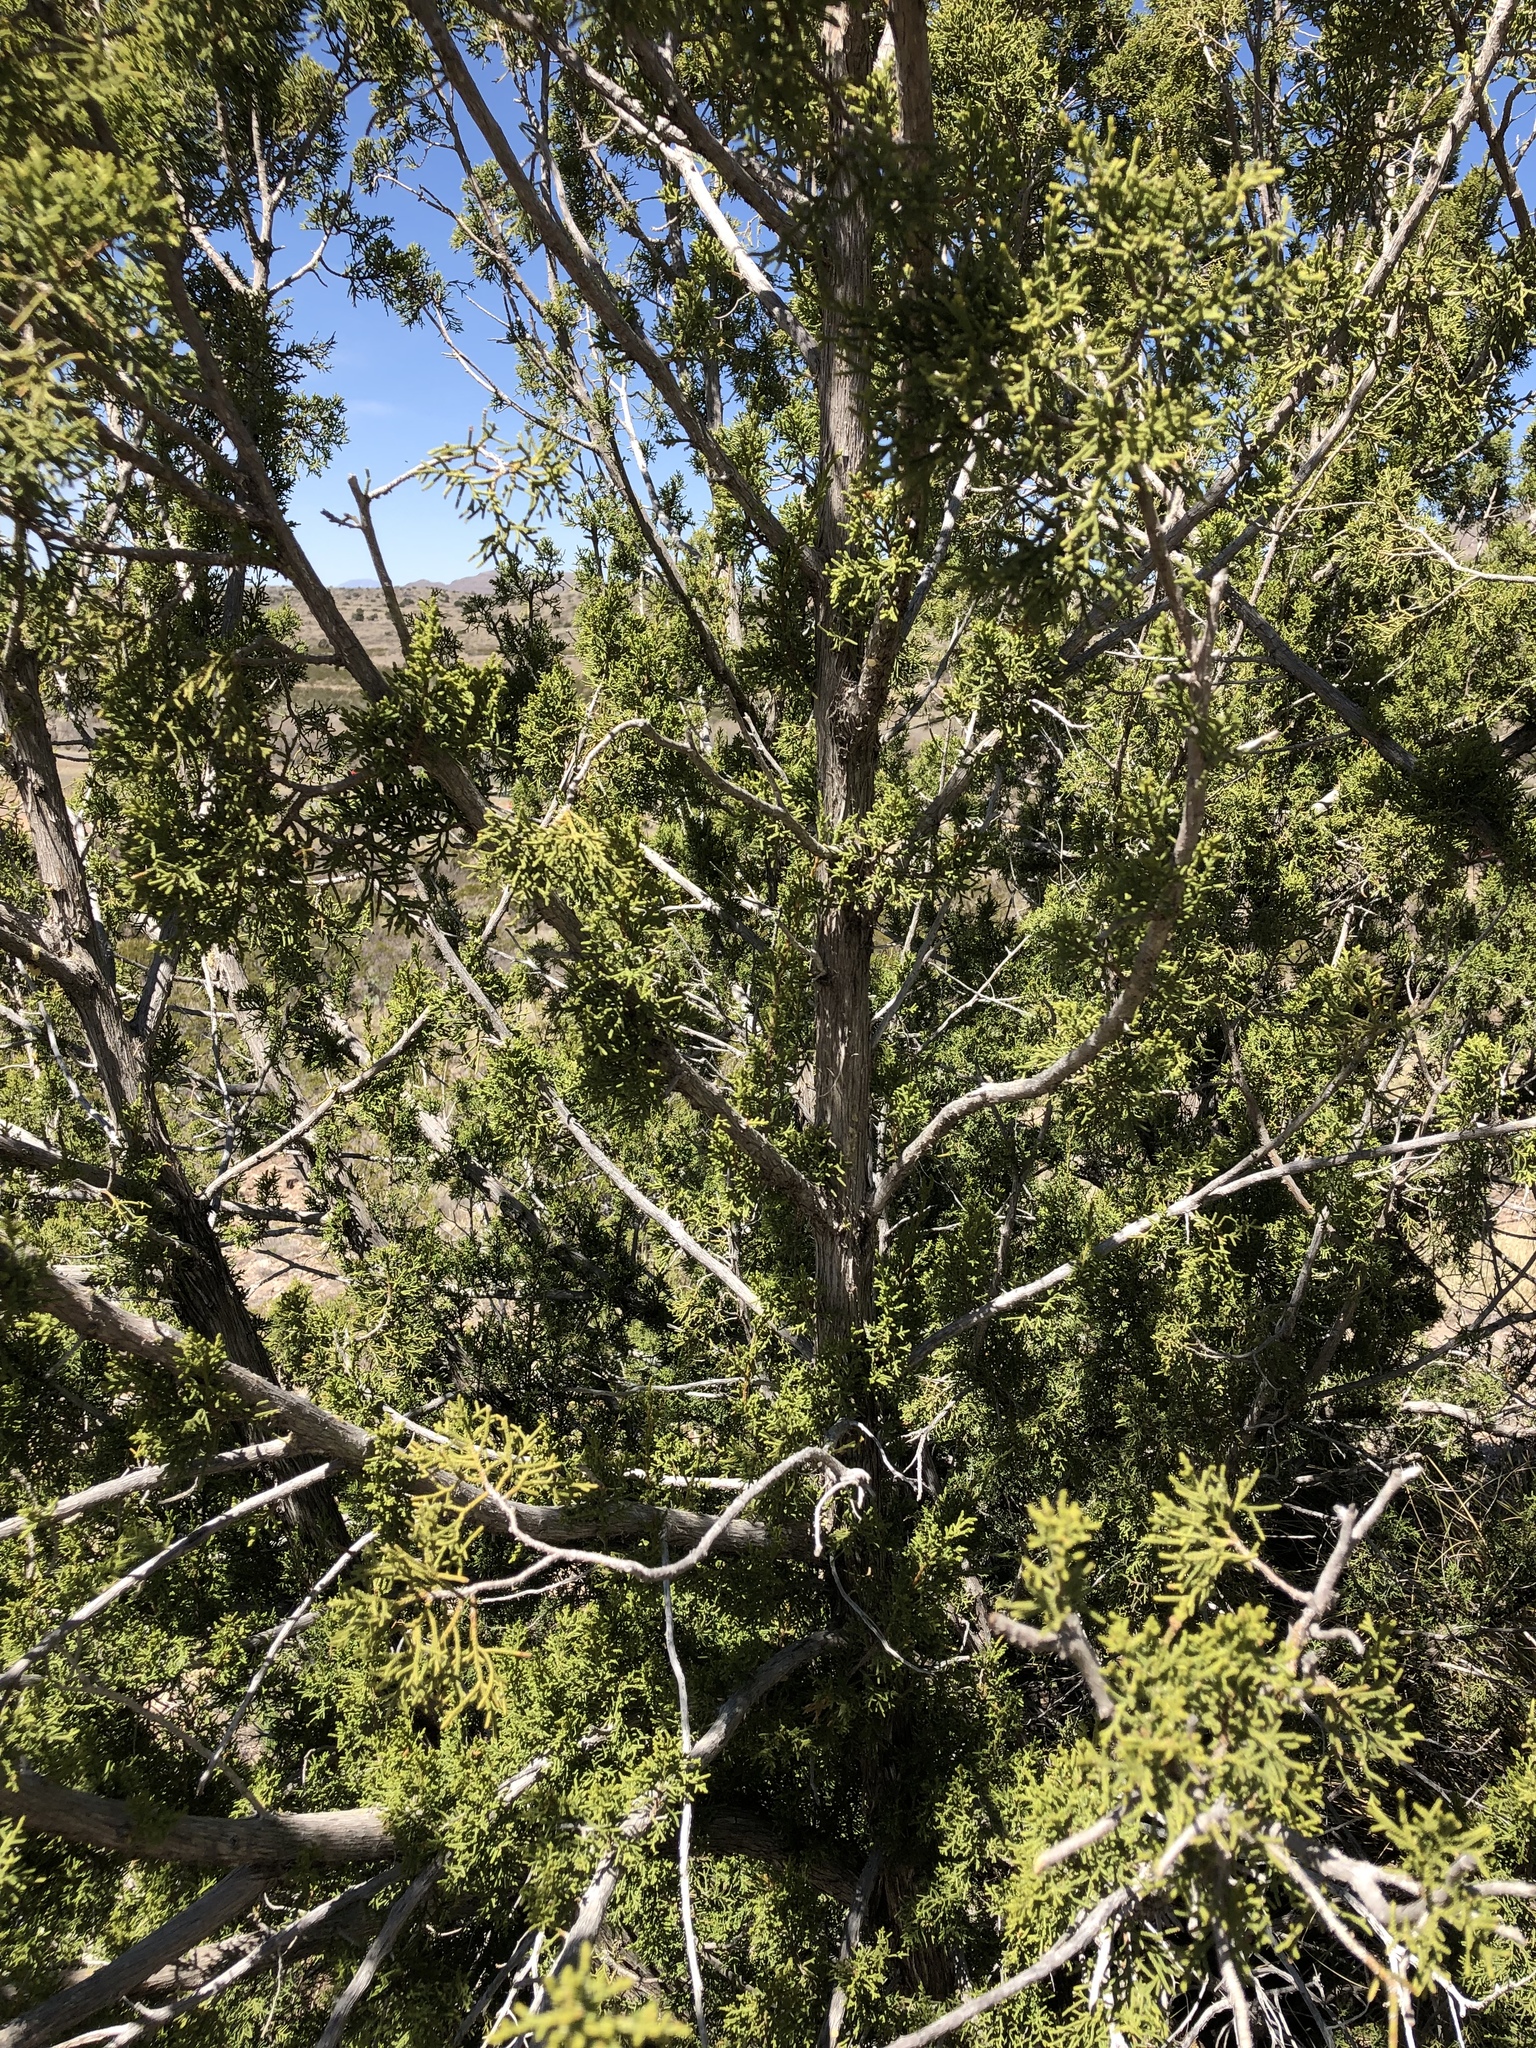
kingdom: Plantae
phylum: Tracheophyta
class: Pinopsida
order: Pinales
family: Cupressaceae
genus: Juniperus
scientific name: Juniperus monosperma
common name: One-seed juniper
